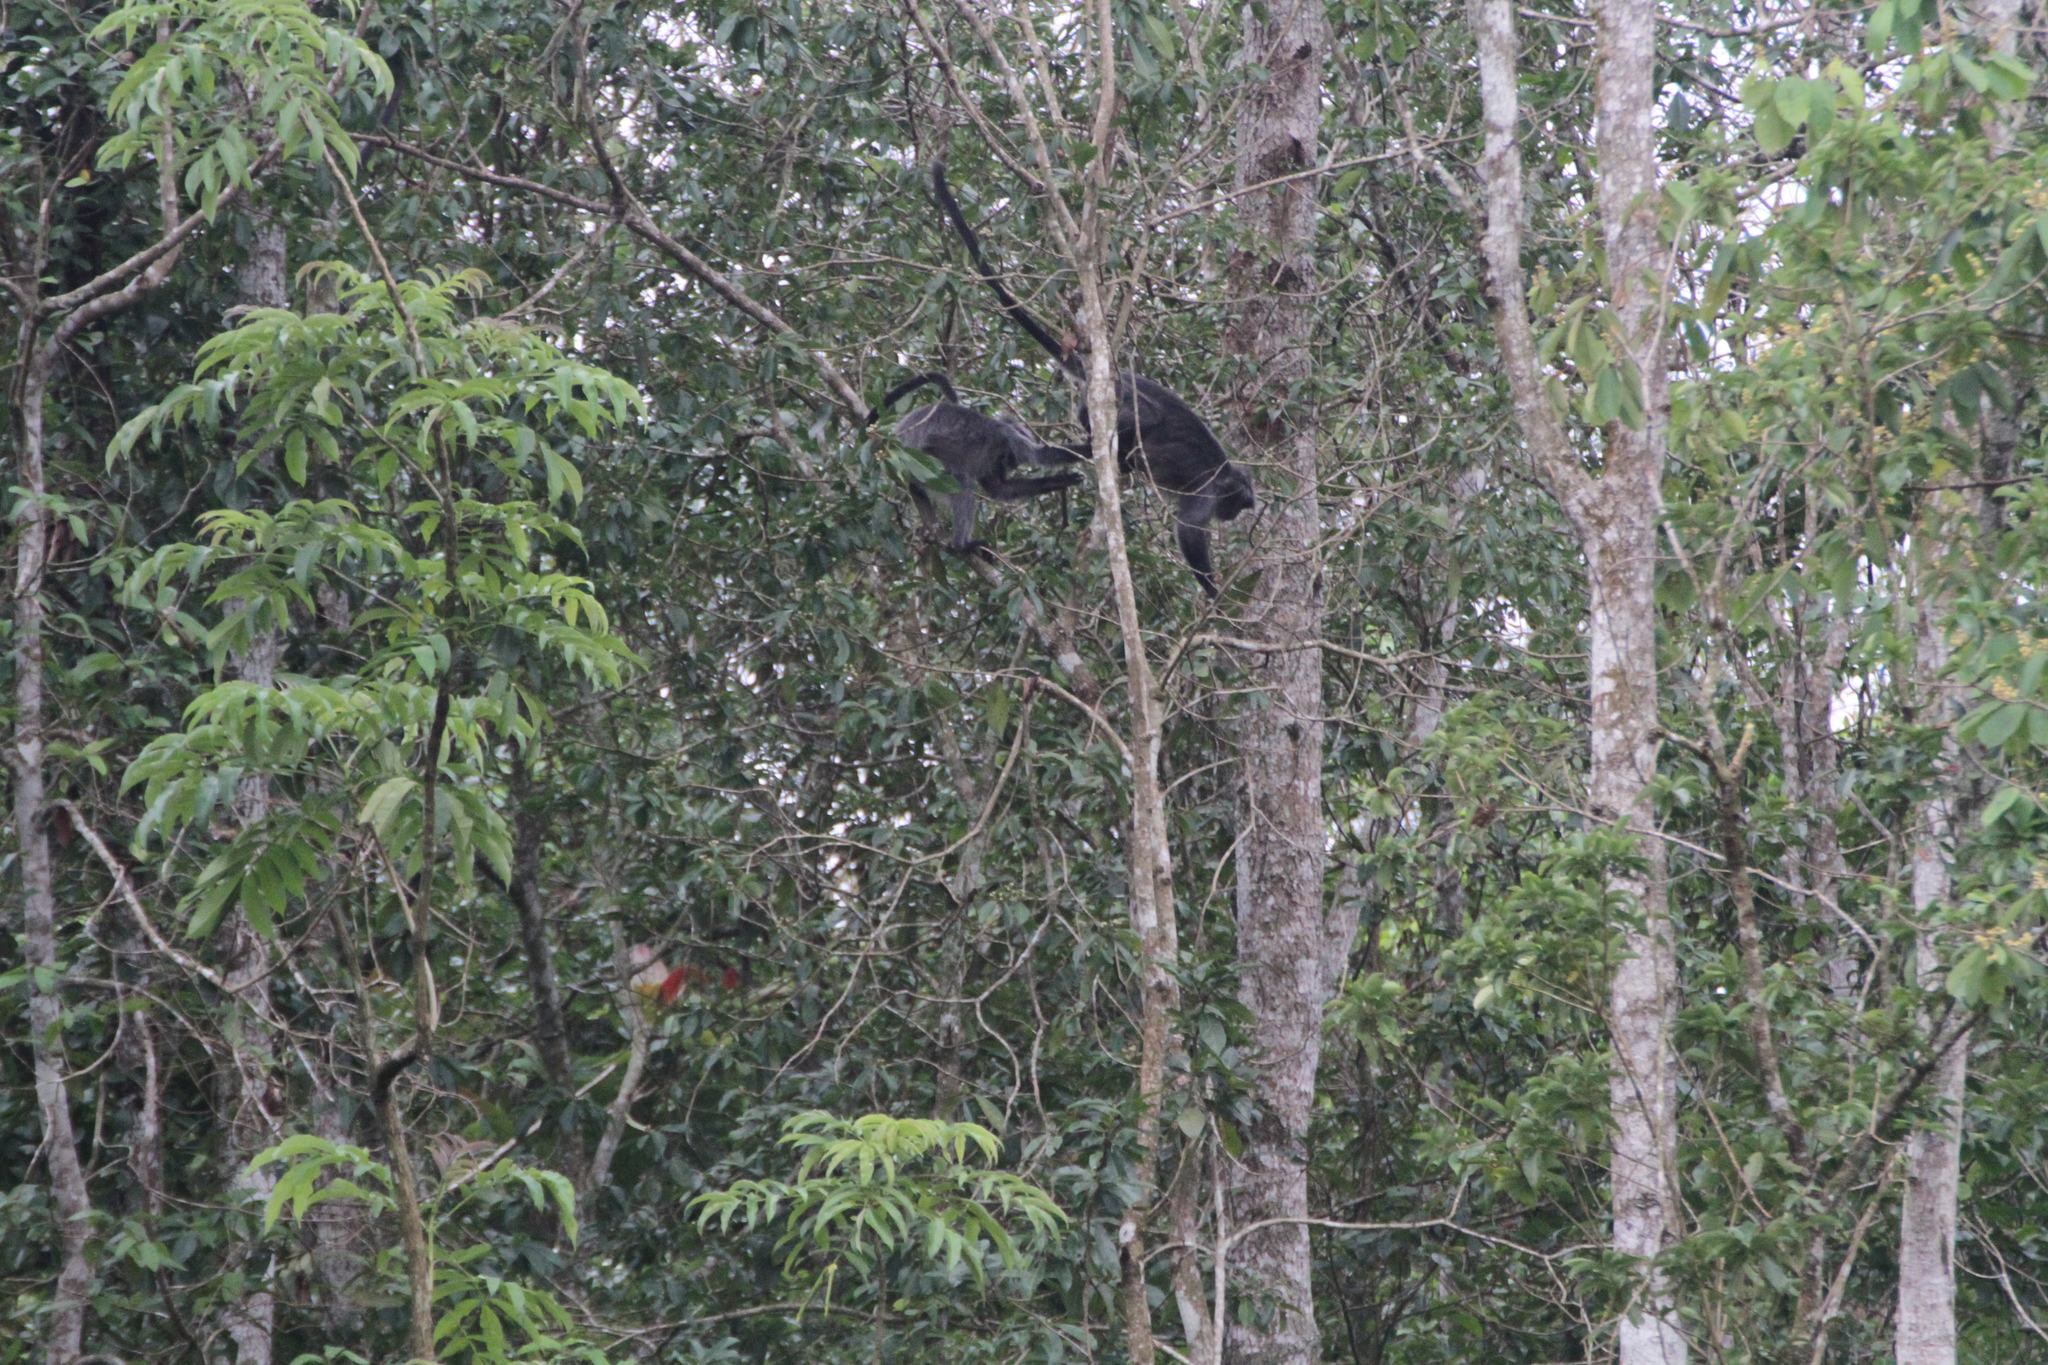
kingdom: Animalia
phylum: Chordata
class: Mammalia
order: Primates
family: Cercopithecidae
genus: Trachypithecus
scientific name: Trachypithecus cristatus
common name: Silvery lutung
